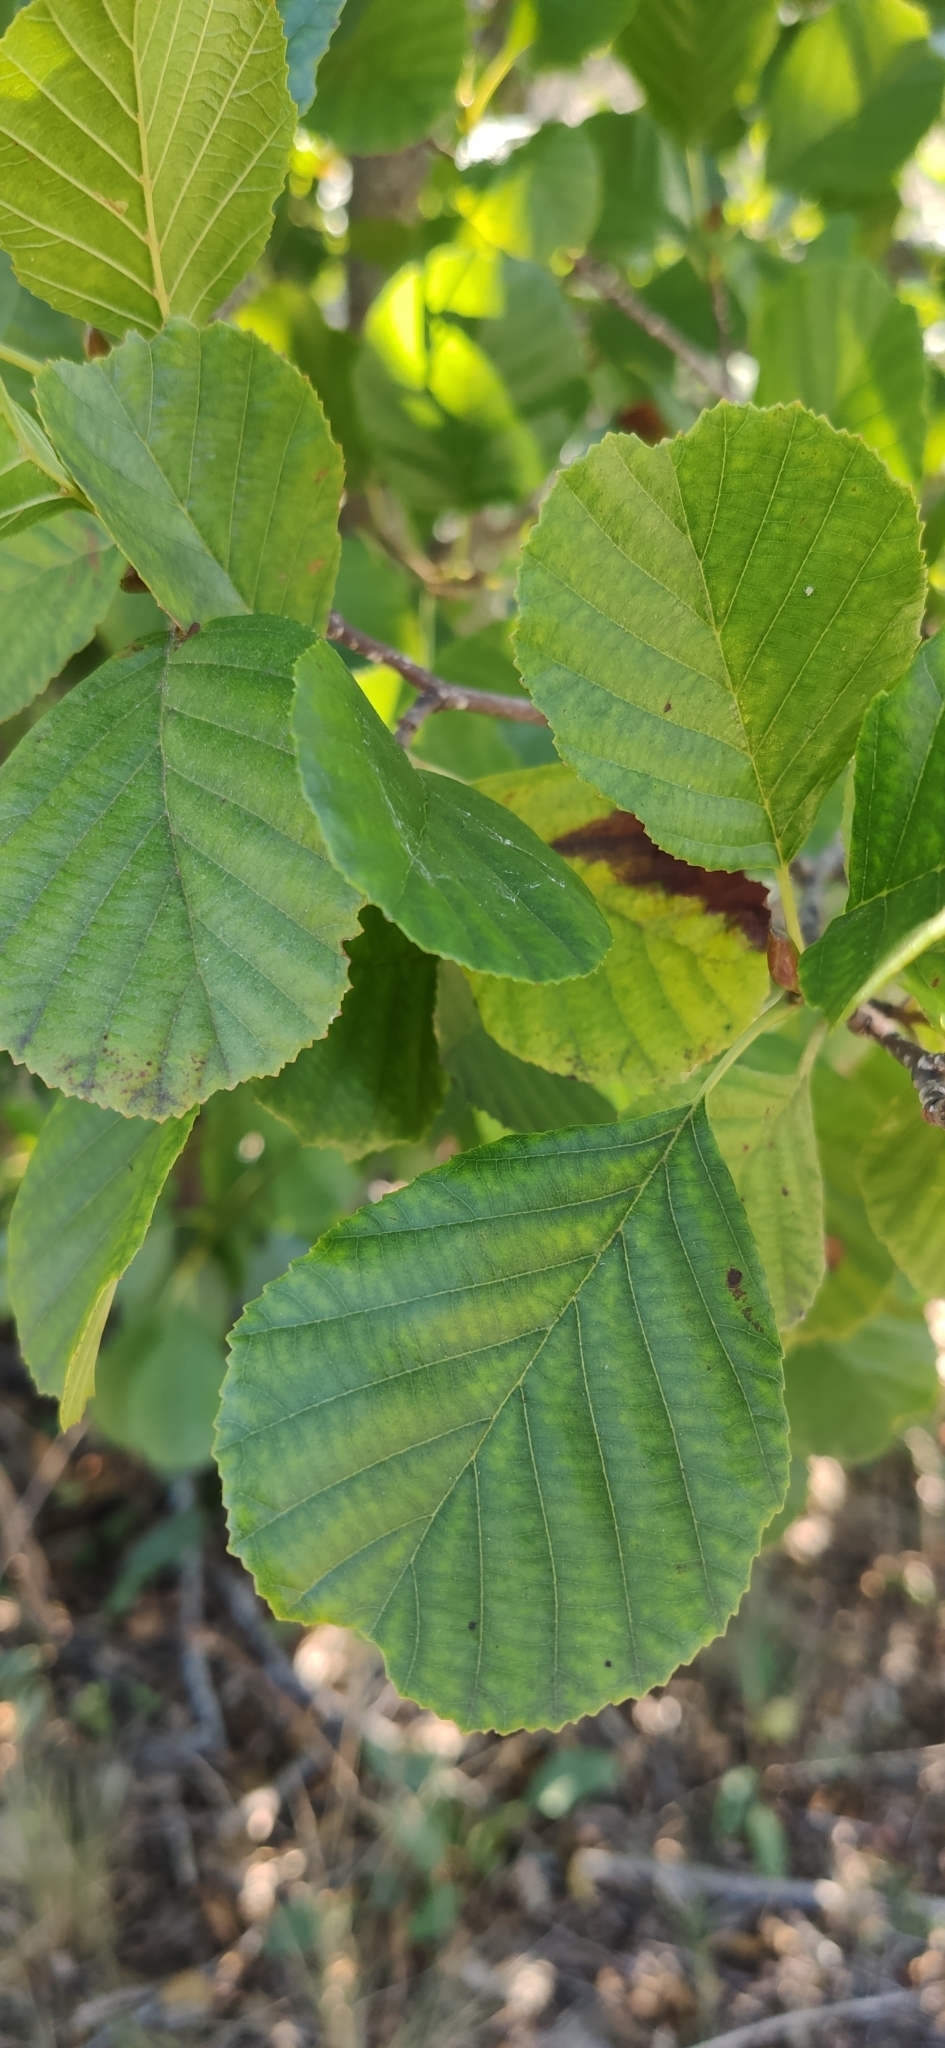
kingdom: Plantae
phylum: Tracheophyta
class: Magnoliopsida
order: Fagales
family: Betulaceae
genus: Alnus
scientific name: Alnus glutinosa
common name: Black alder
